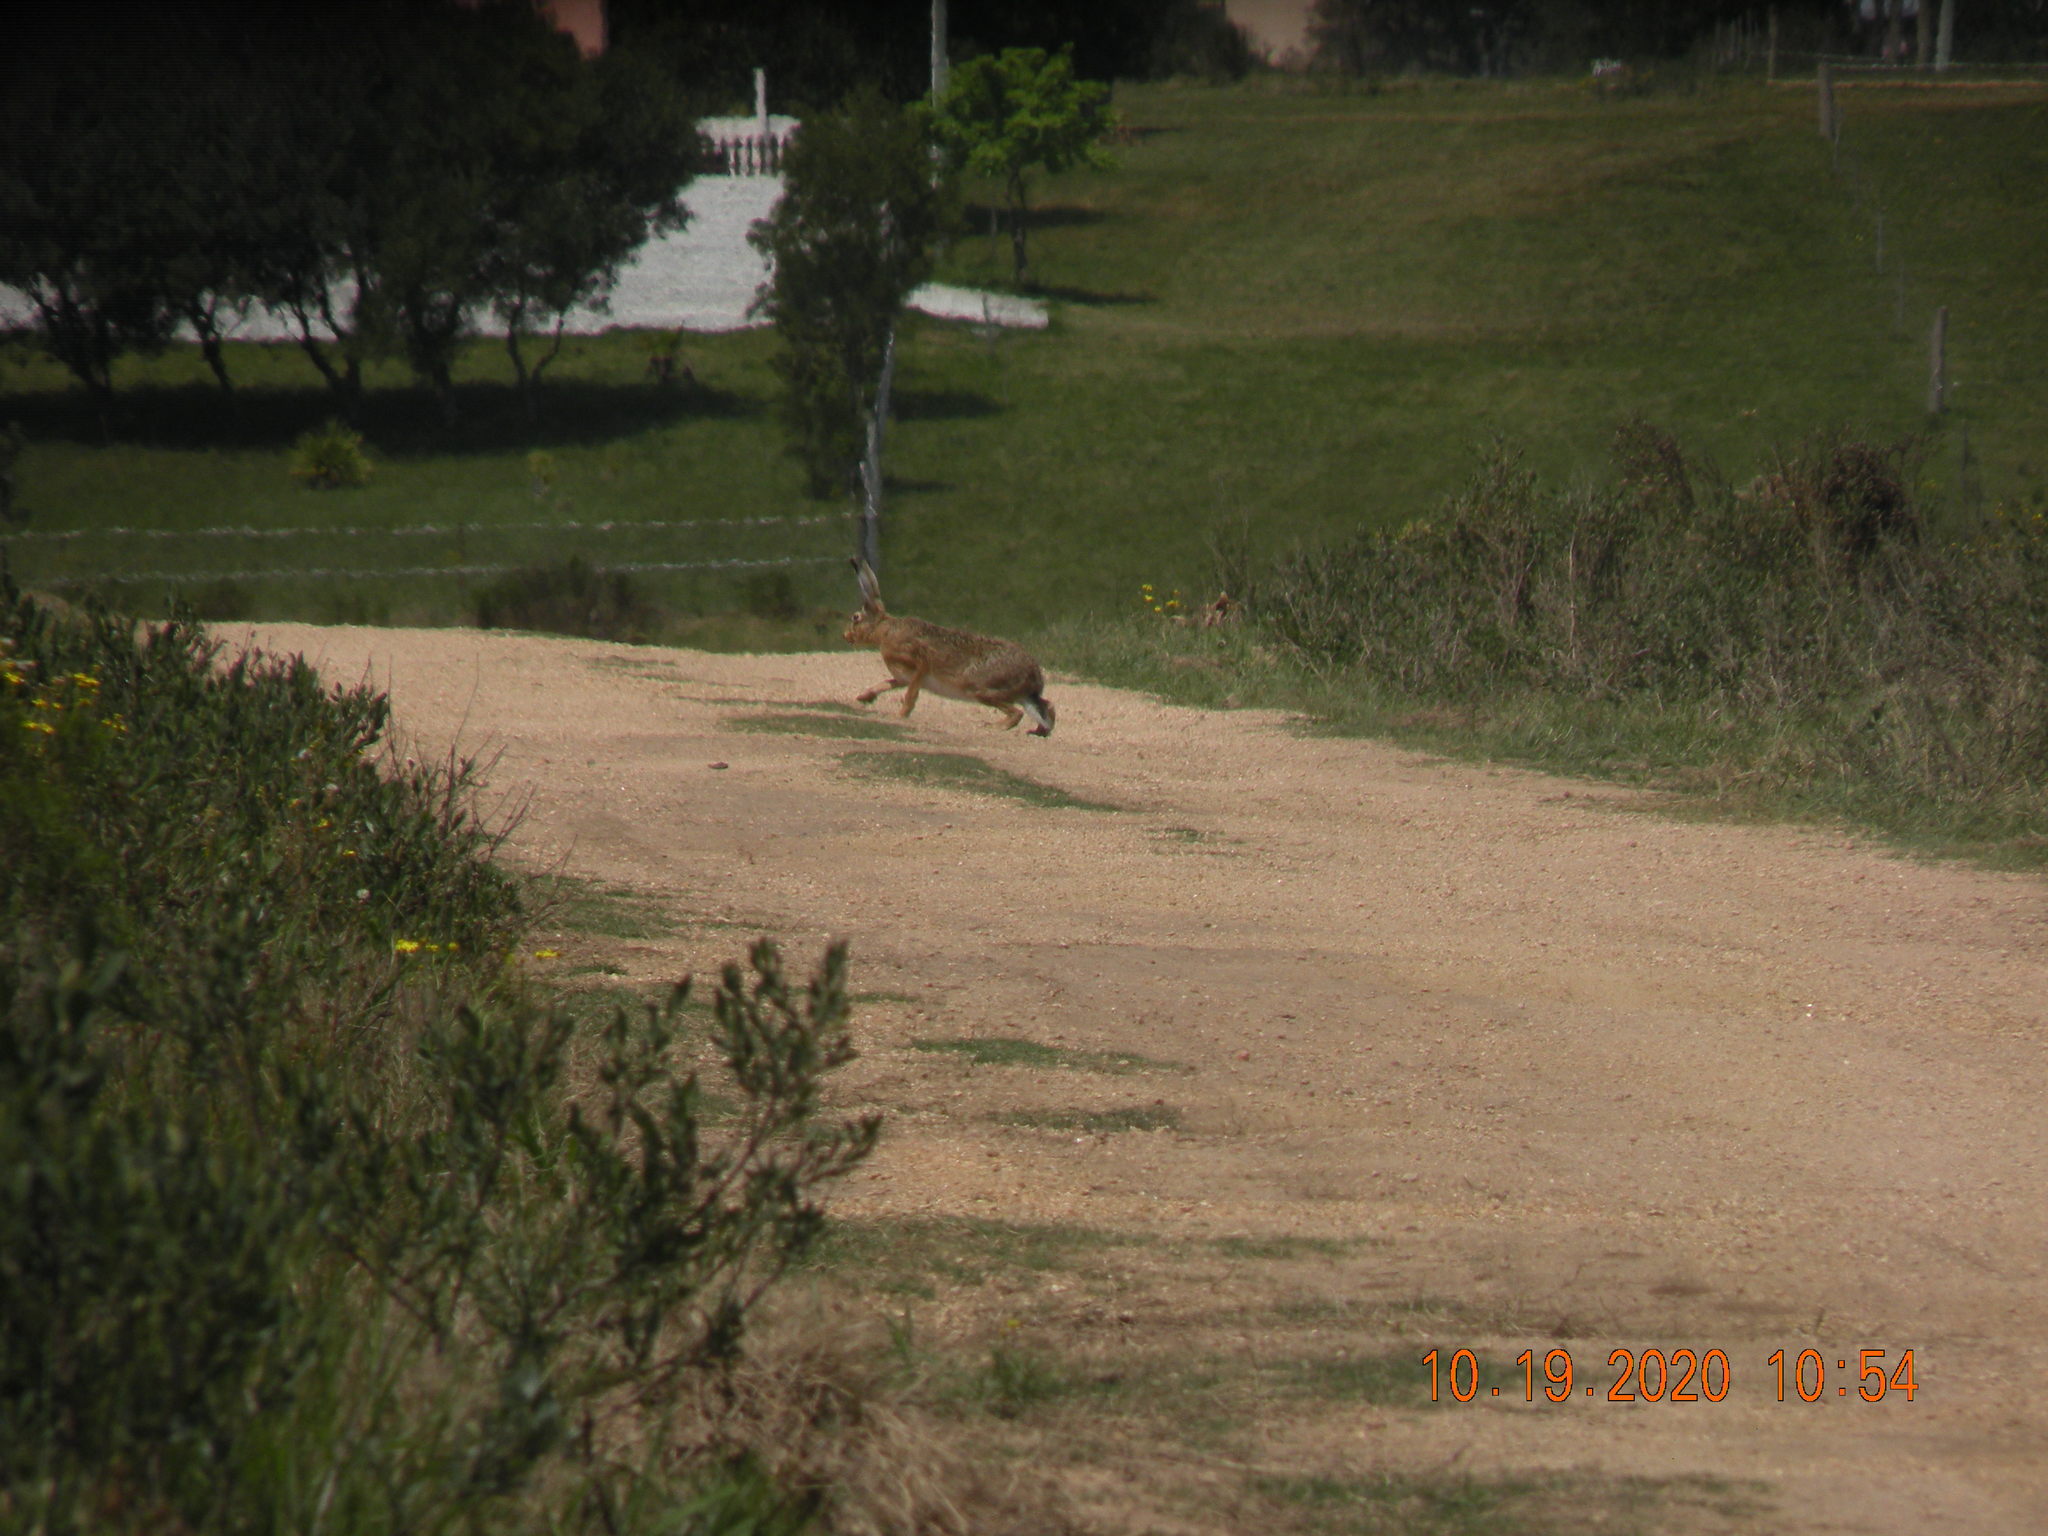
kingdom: Animalia
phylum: Chordata
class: Mammalia
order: Lagomorpha
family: Leporidae
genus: Lepus
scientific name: Lepus europaeus
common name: European hare
